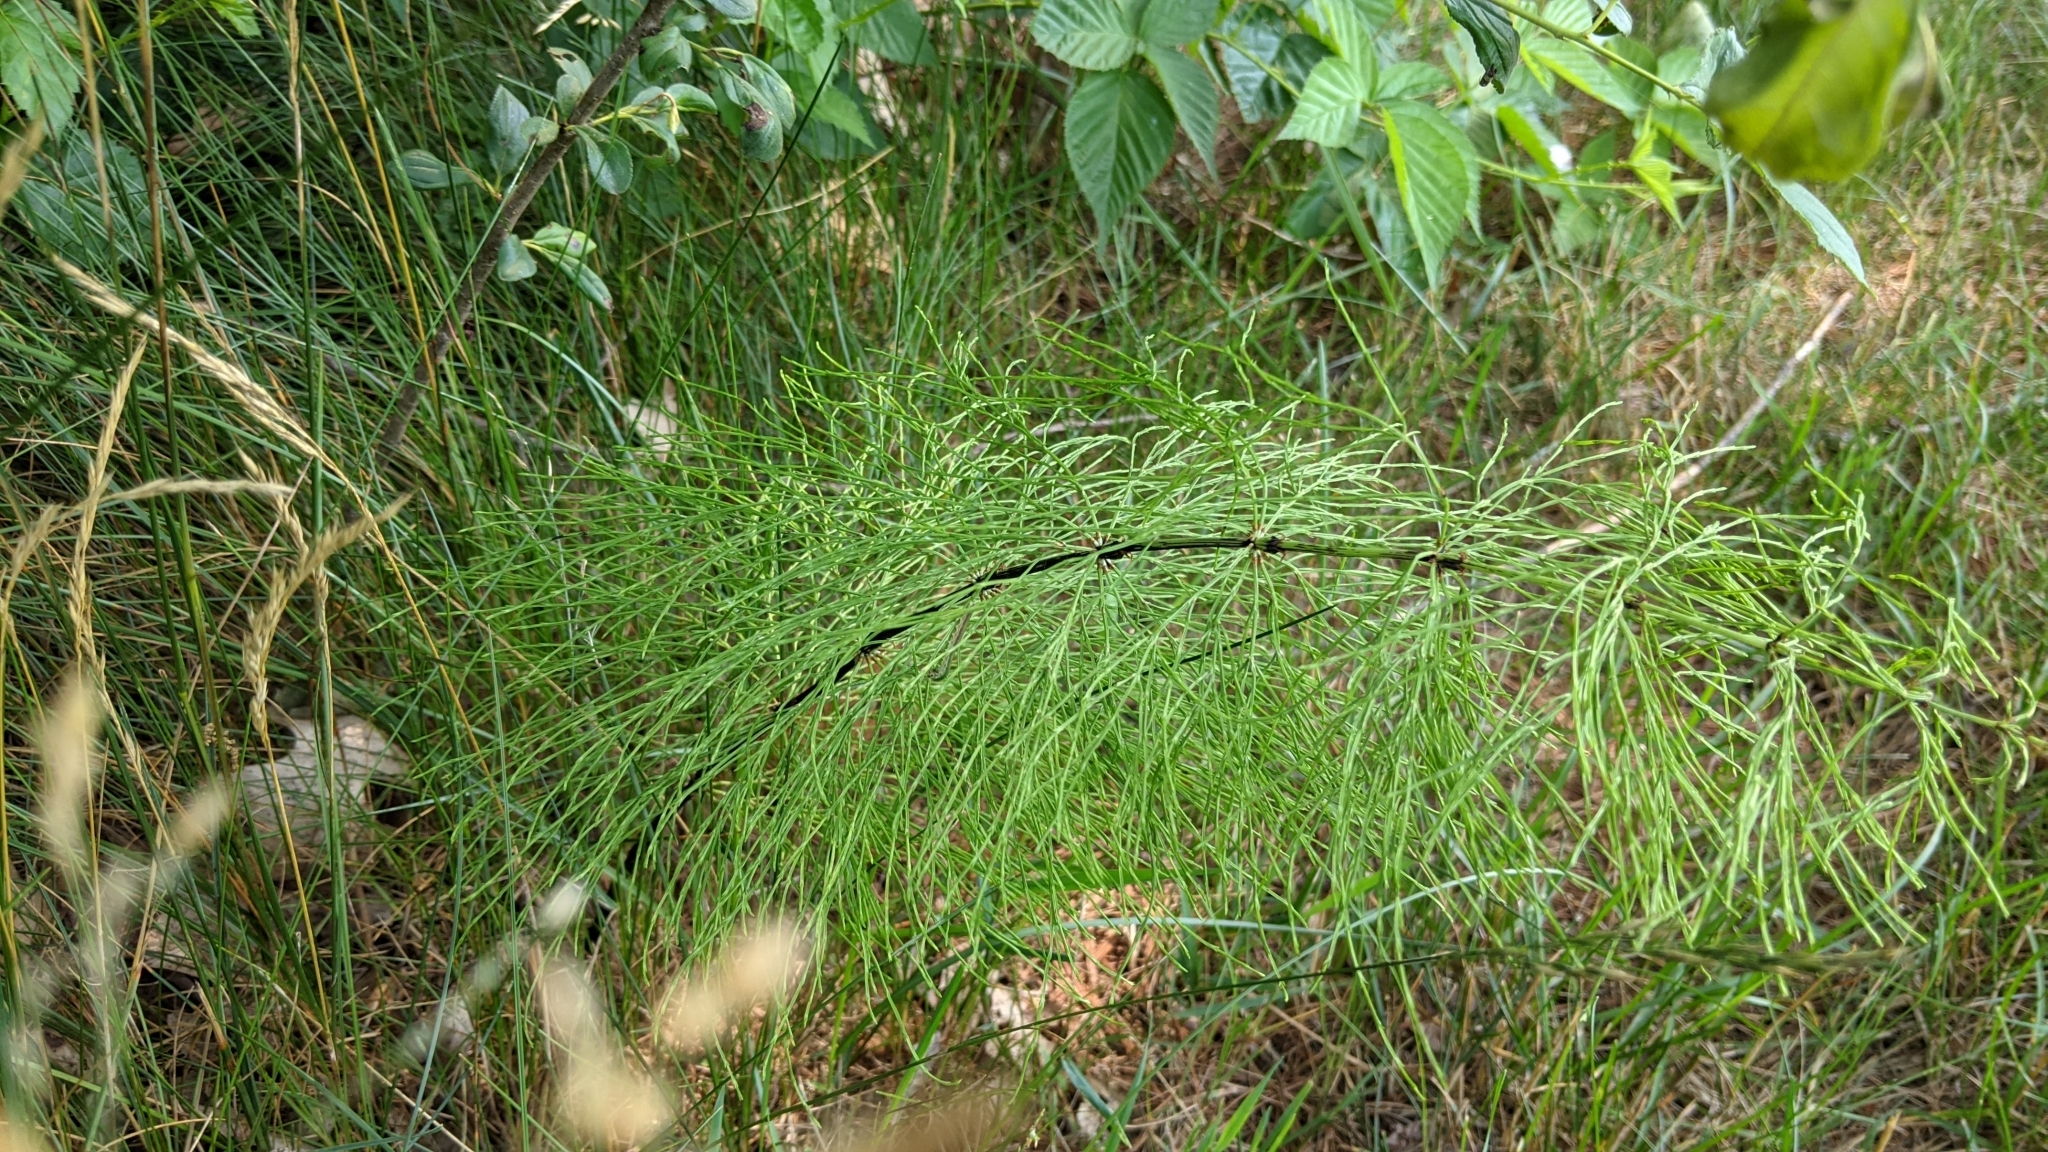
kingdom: Plantae
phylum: Tracheophyta
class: Polypodiopsida
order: Equisetales
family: Equisetaceae
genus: Equisetum
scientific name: Equisetum sylvaticum
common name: Wood horsetail
